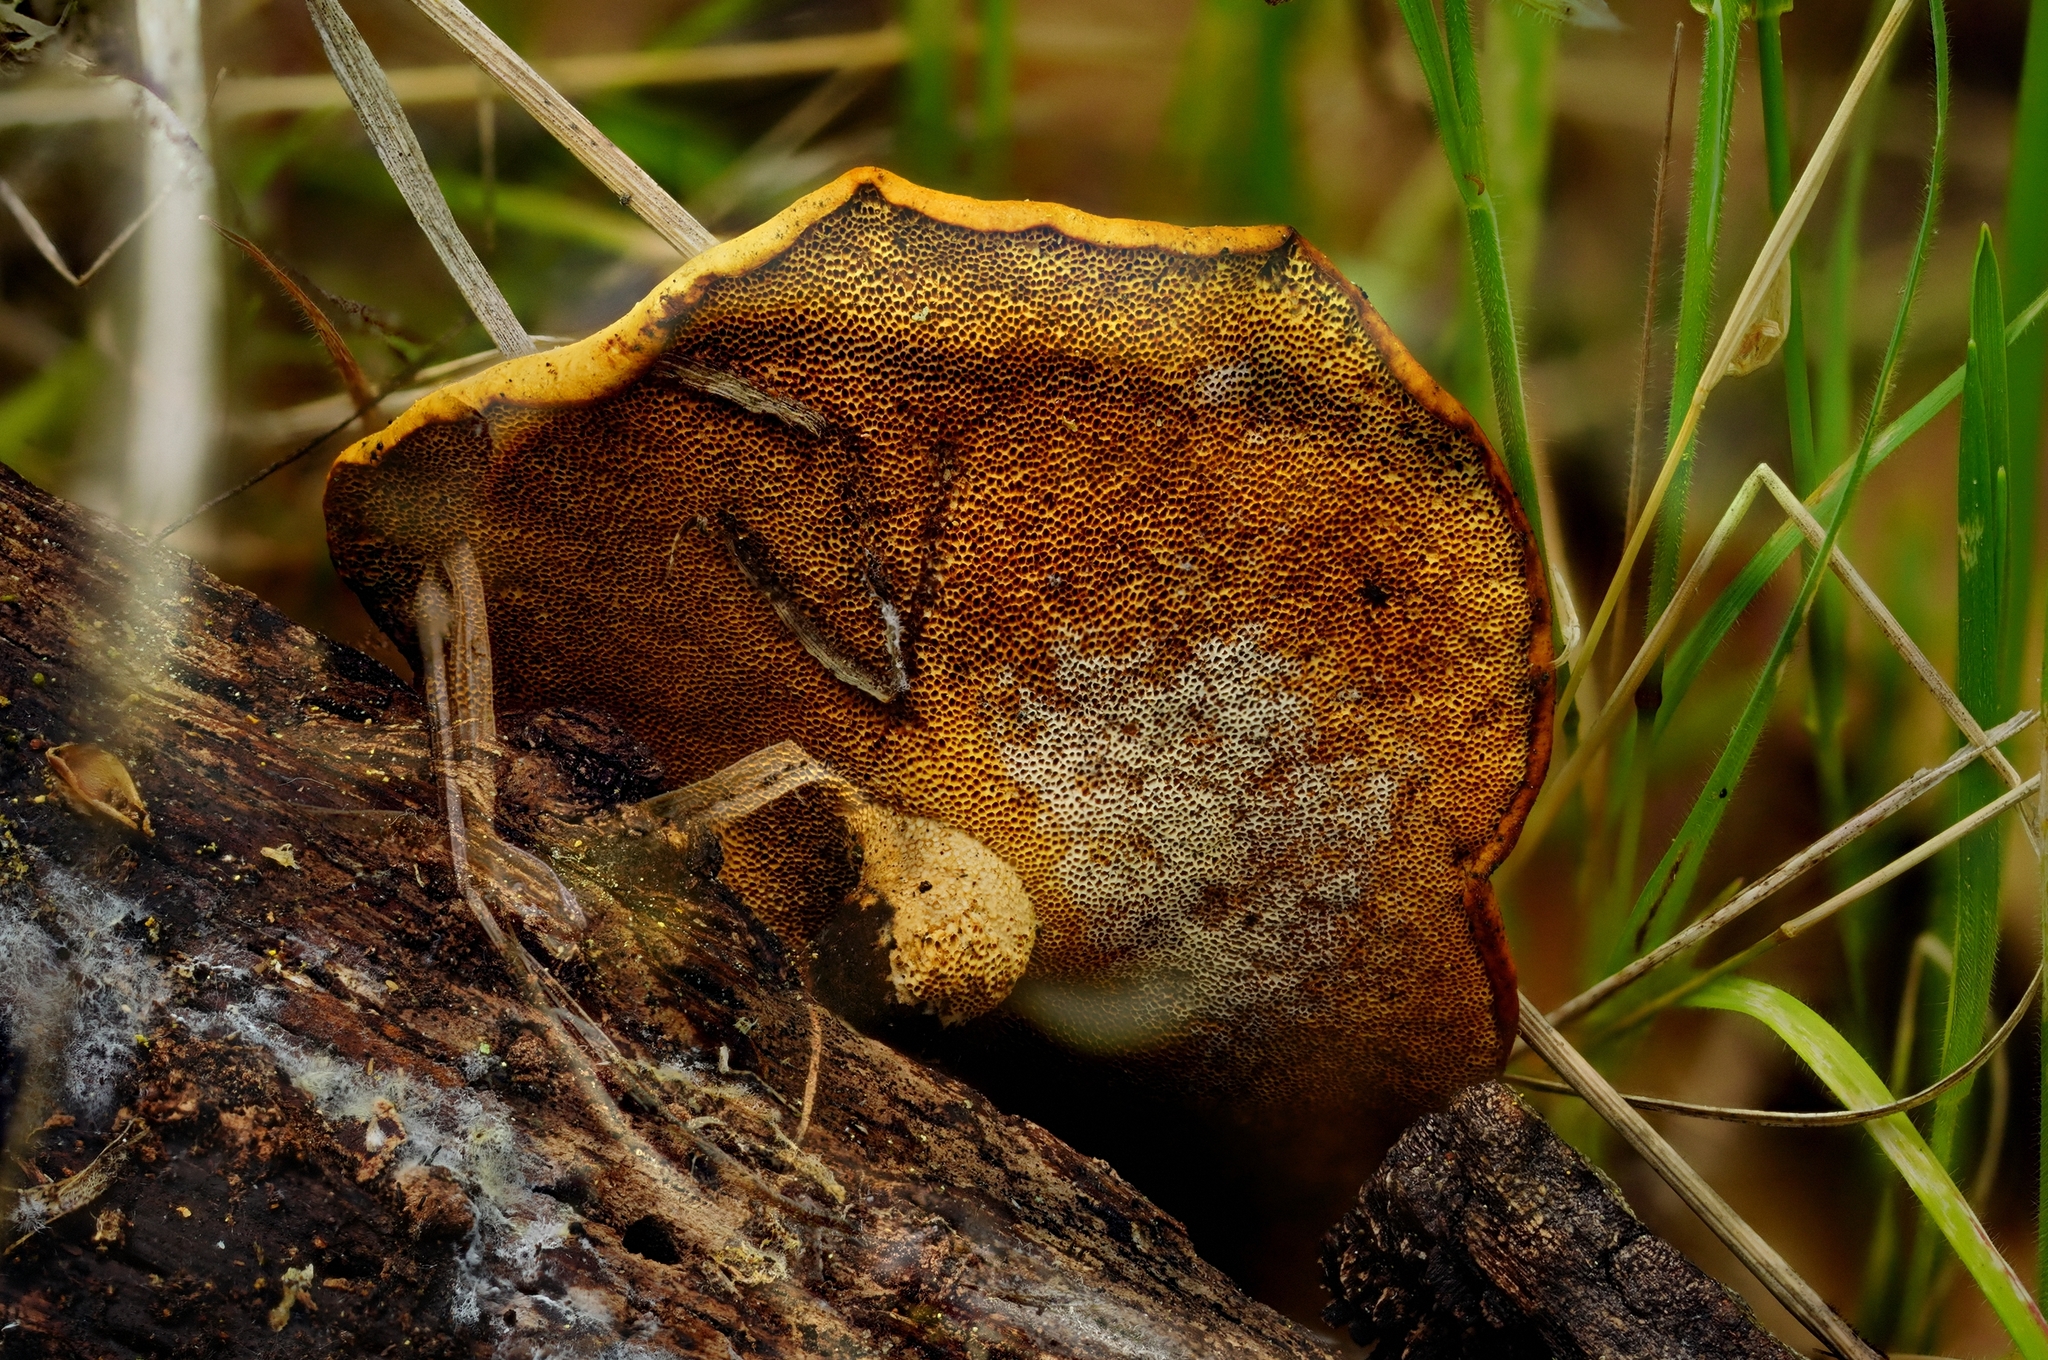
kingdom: Fungi
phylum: Basidiomycota
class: Agaricomycetes
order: Polyporales
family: Polyporaceae
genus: Cerioporus
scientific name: Cerioporus leptocephalus
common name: Blackfoot polypore
